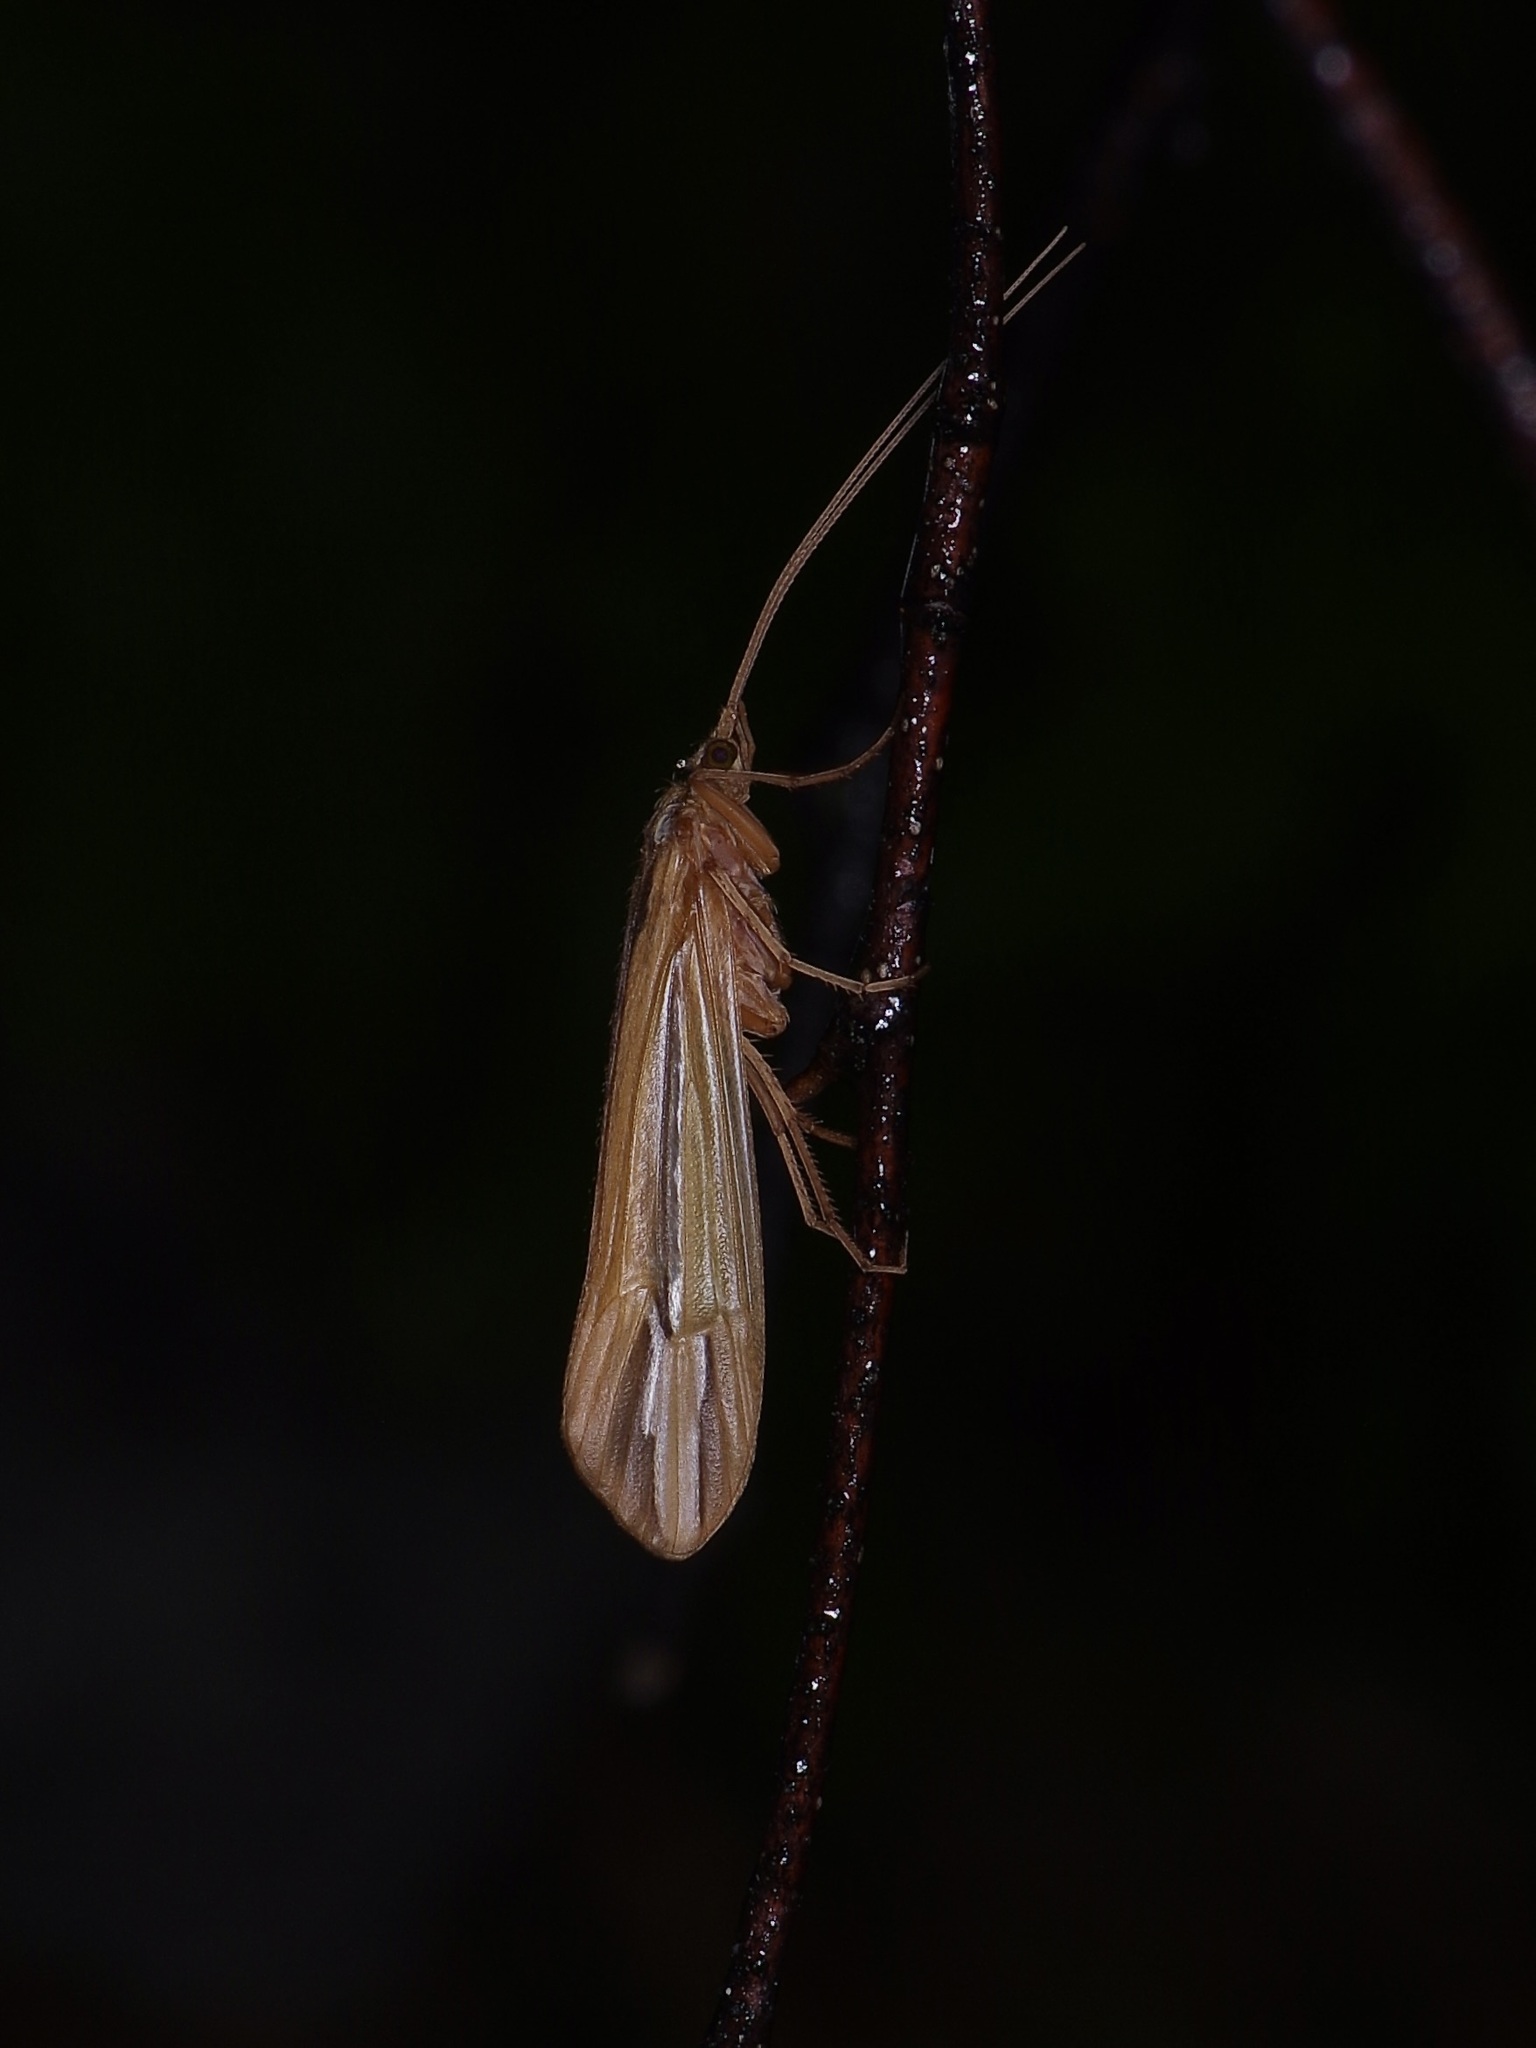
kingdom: Animalia
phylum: Arthropoda
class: Insecta
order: Trichoptera
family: Limnephilidae
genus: Hesperophylax
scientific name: Hesperophylax designatus
